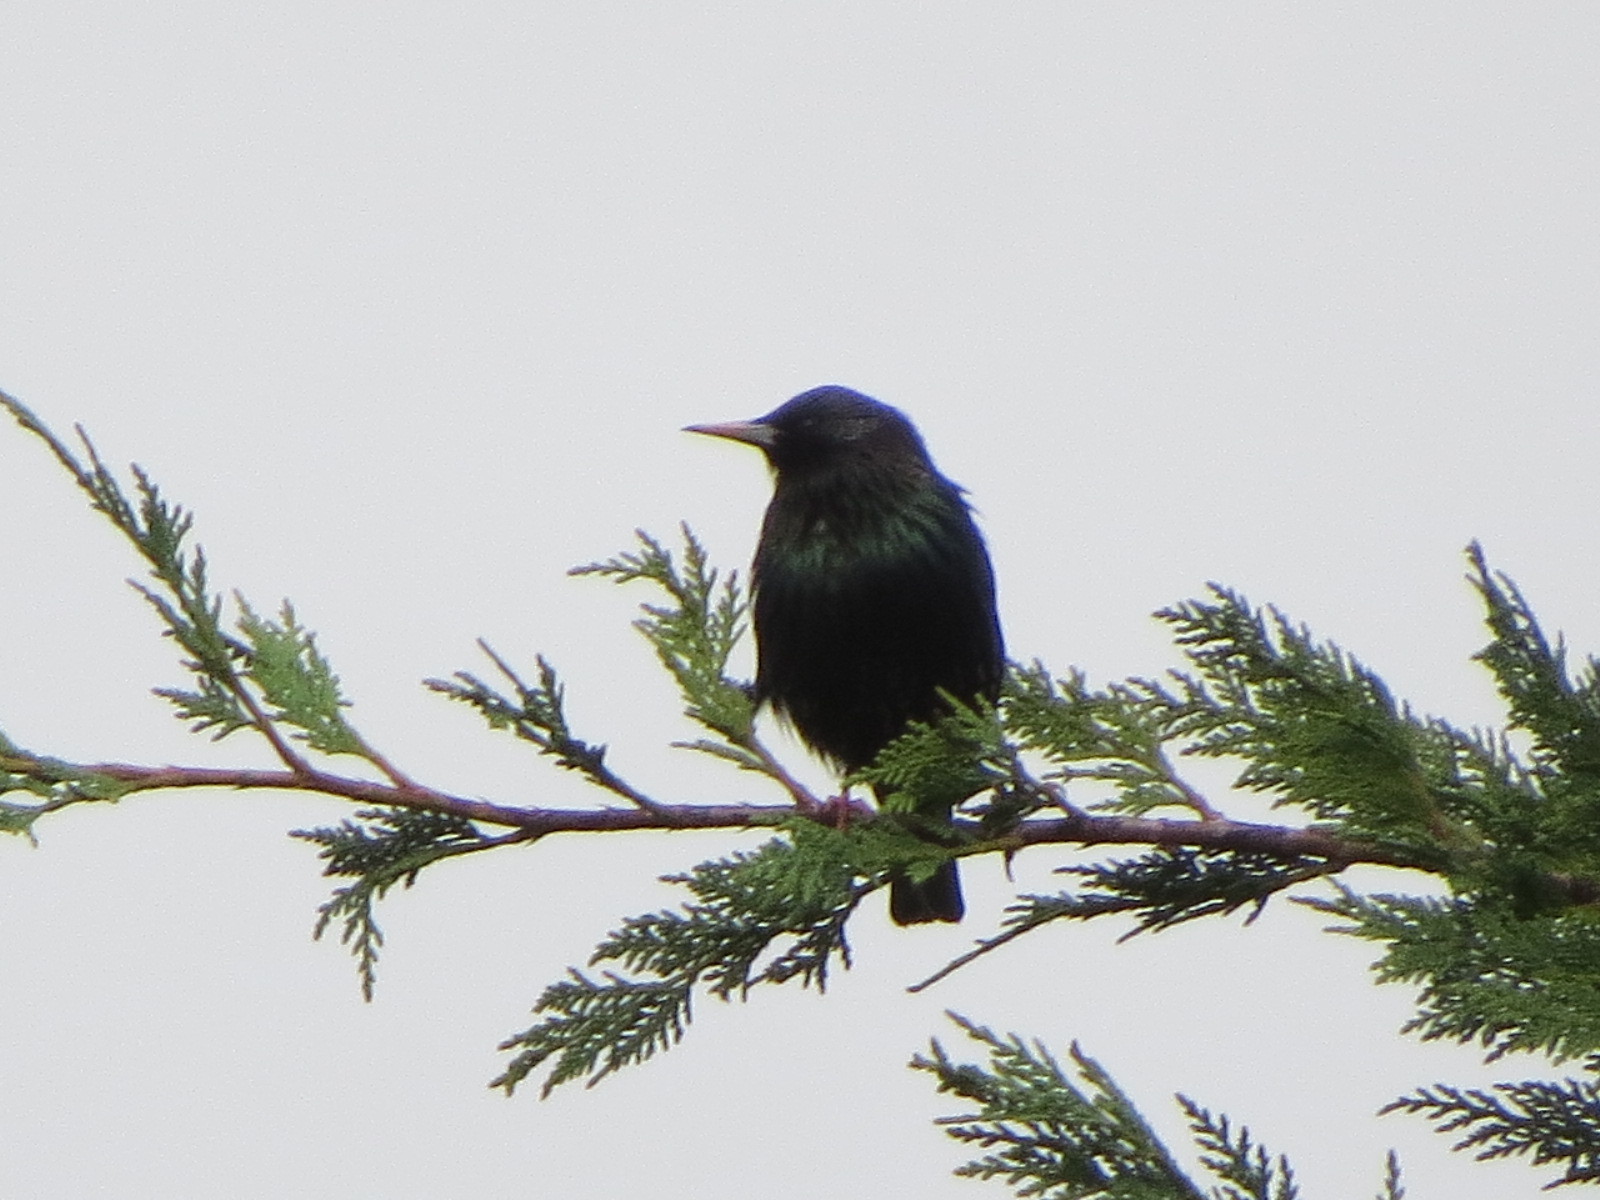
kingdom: Animalia
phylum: Chordata
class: Aves
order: Passeriformes
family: Sturnidae
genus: Sturnus
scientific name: Sturnus vulgaris
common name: Common starling
